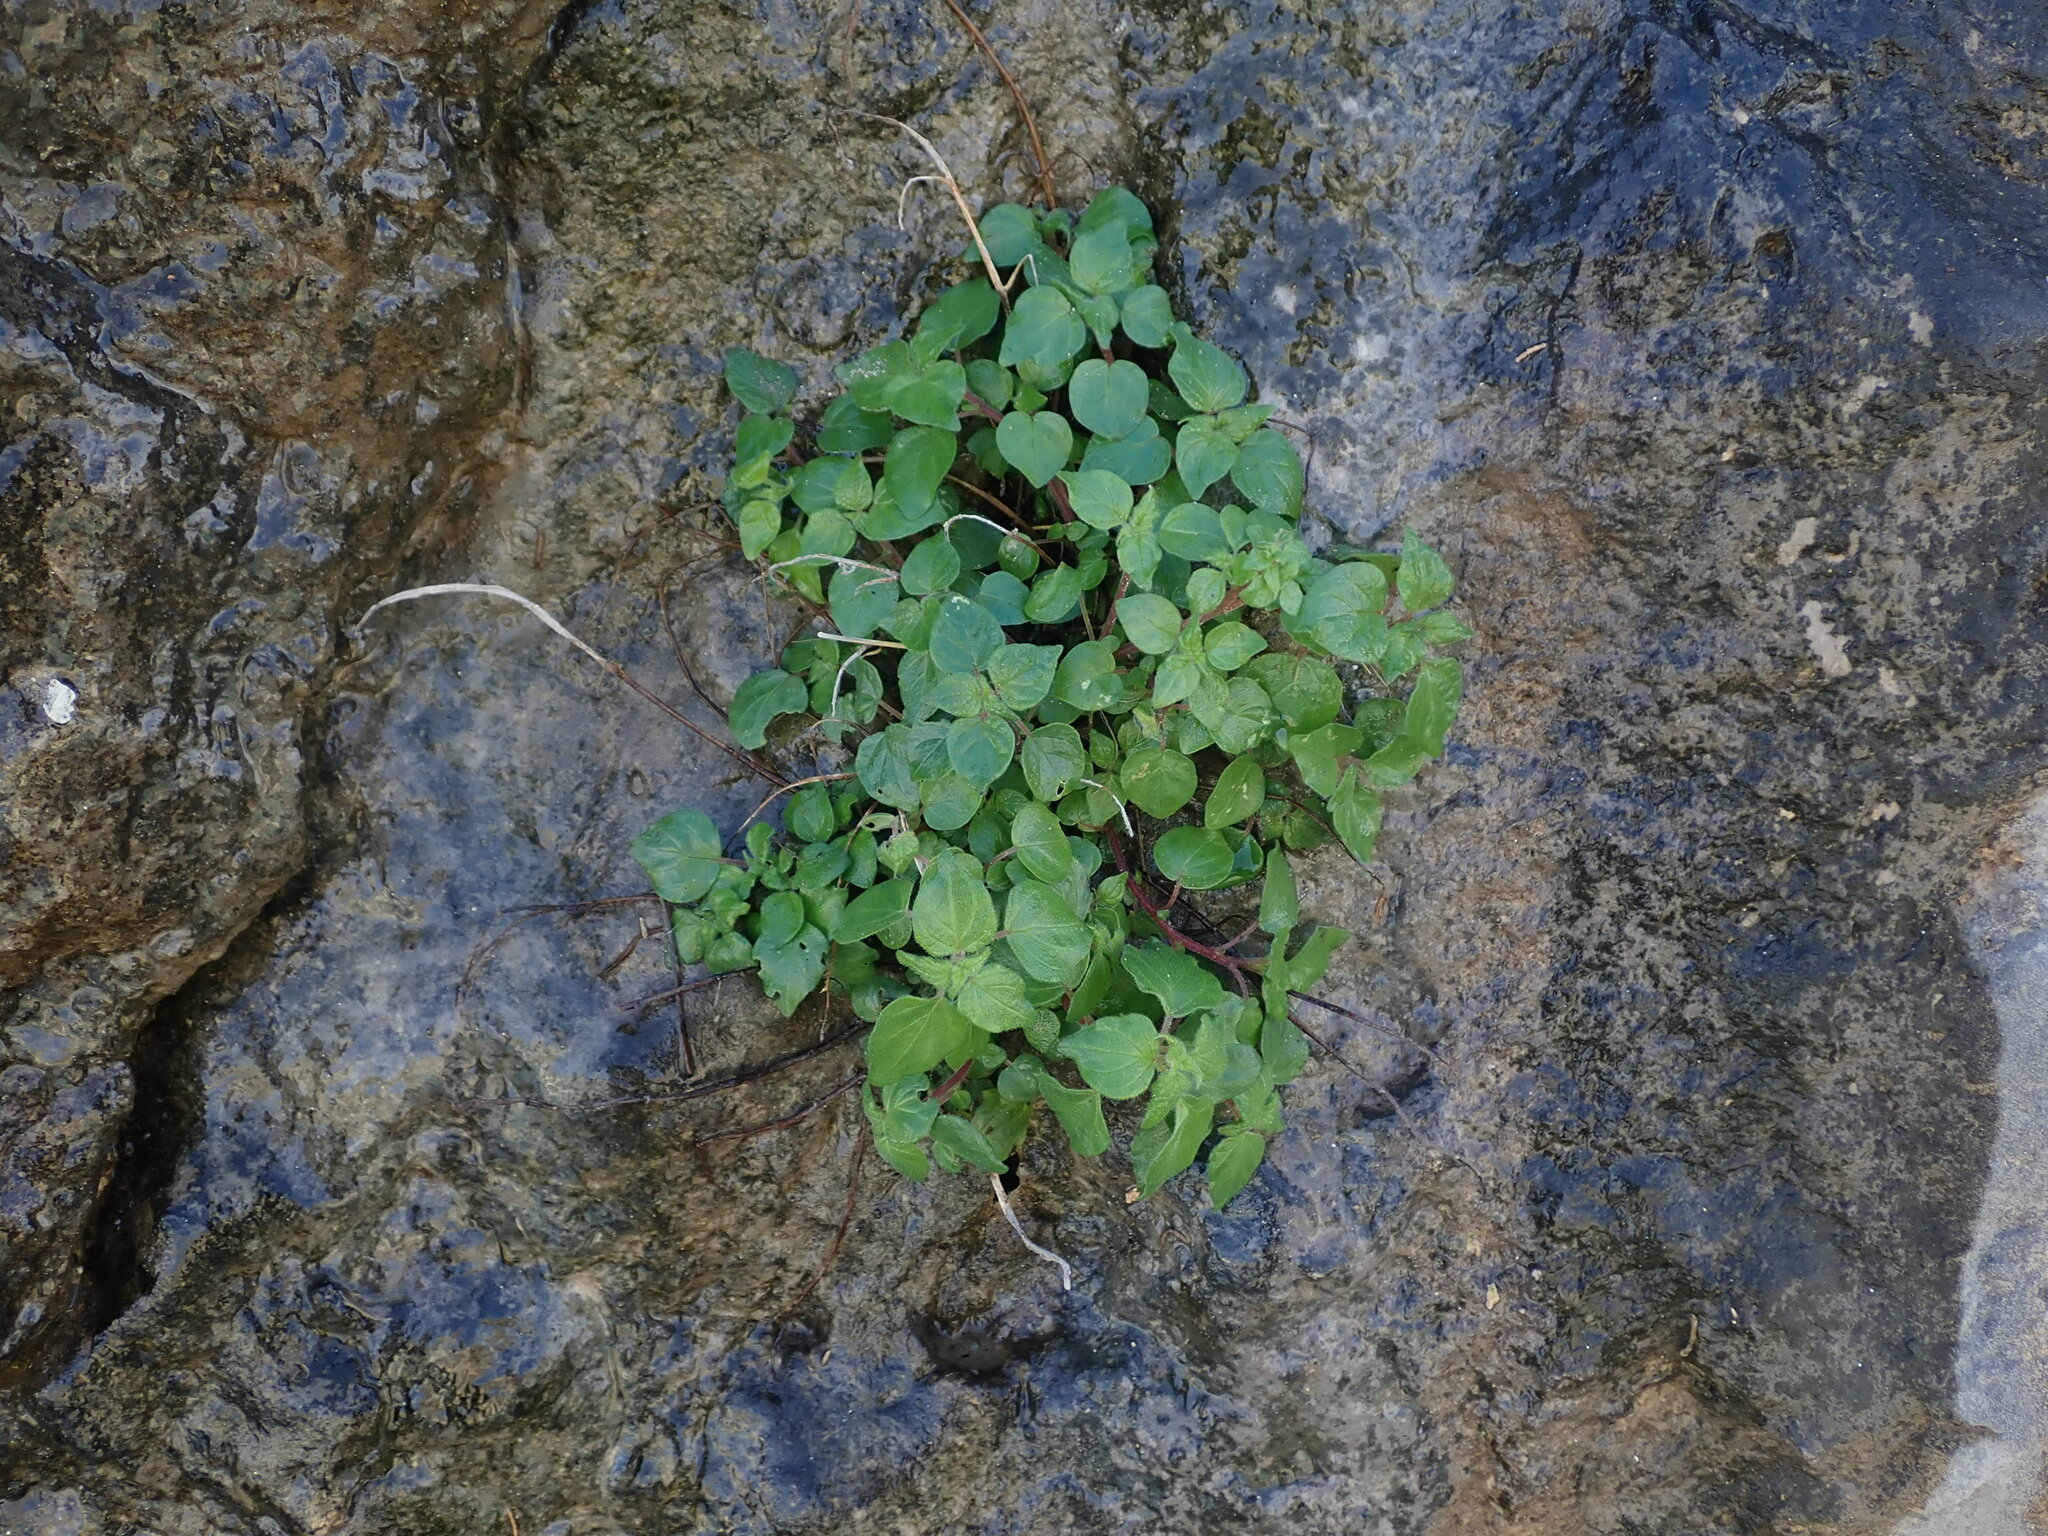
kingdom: Plantae
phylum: Tracheophyta
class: Magnoliopsida
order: Rosales
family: Urticaceae
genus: Parietaria
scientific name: Parietaria judaica
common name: Pellitory-of-the-wall
